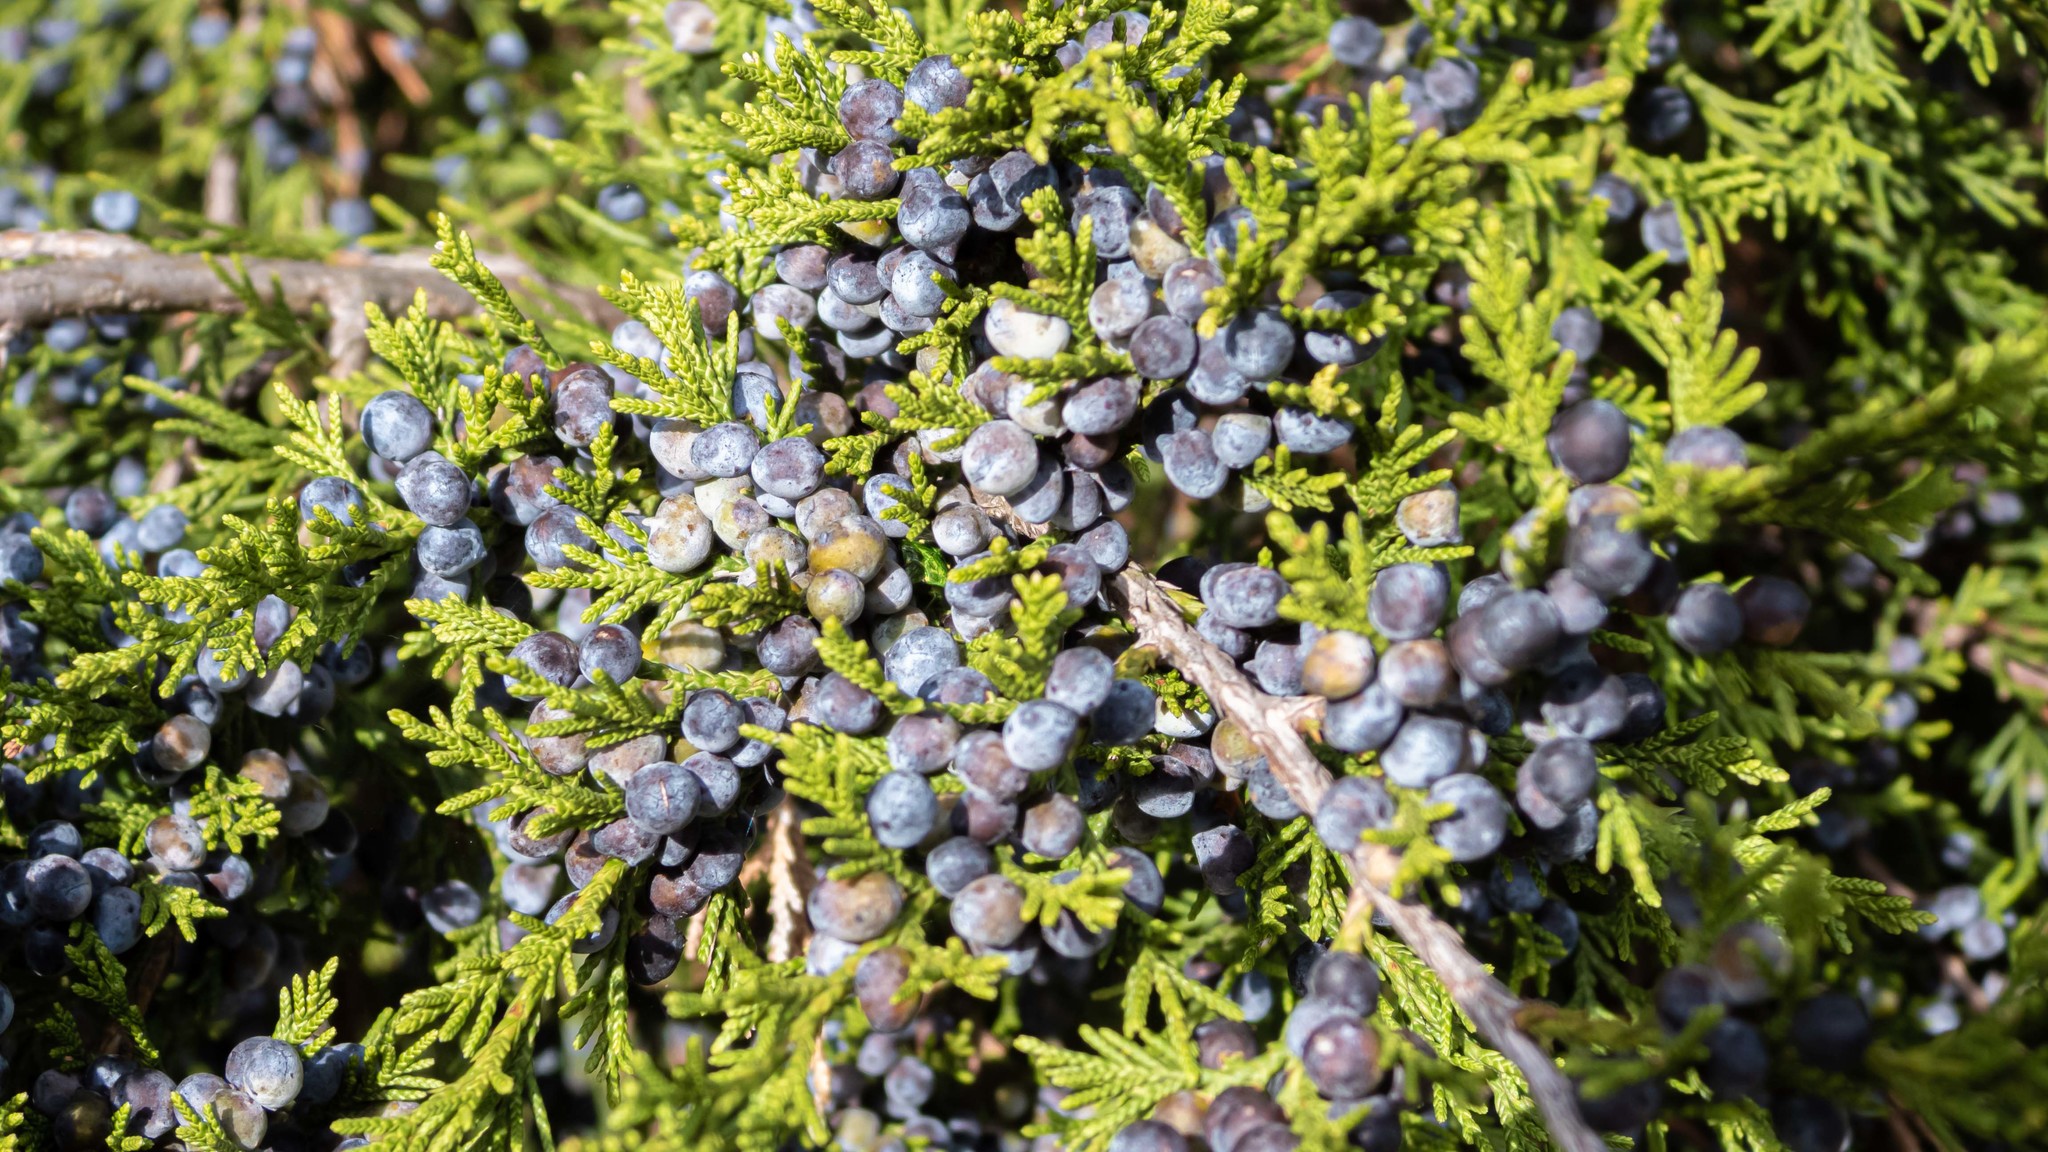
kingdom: Plantae
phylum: Tracheophyta
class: Pinopsida
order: Pinales
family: Cupressaceae
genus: Juniperus
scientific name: Juniperus virginiana
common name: Red juniper
